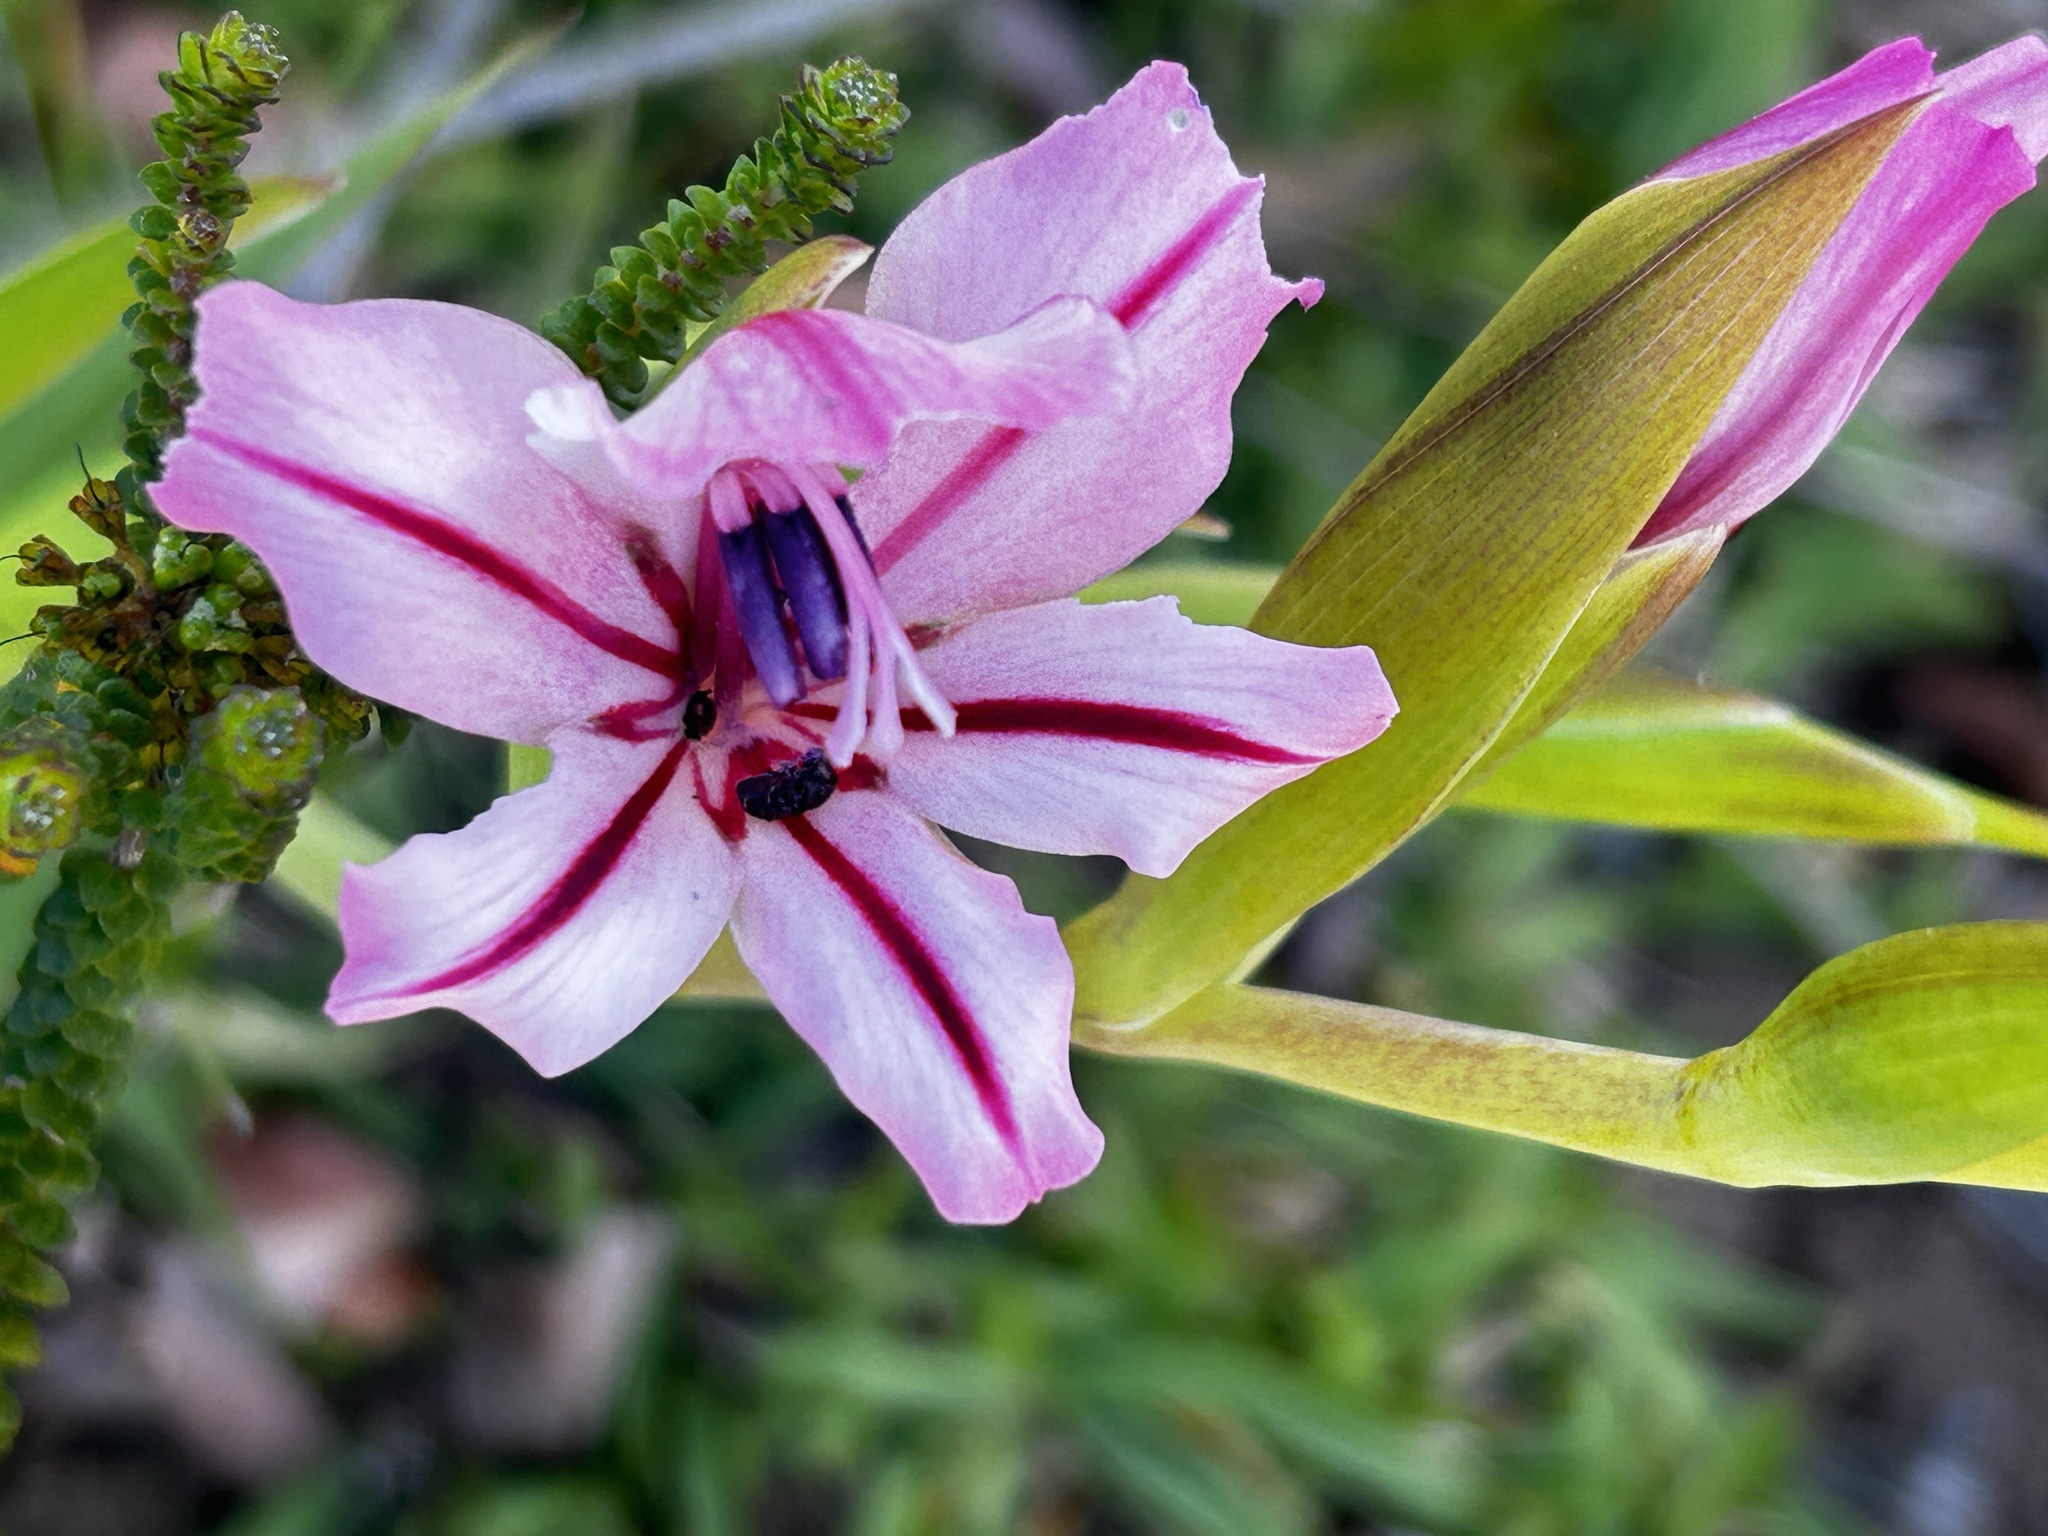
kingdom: Plantae
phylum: Tracheophyta
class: Liliopsida
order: Asparagales
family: Iridaceae
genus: Gladiolus
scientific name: Gladiolus grandiflorus
